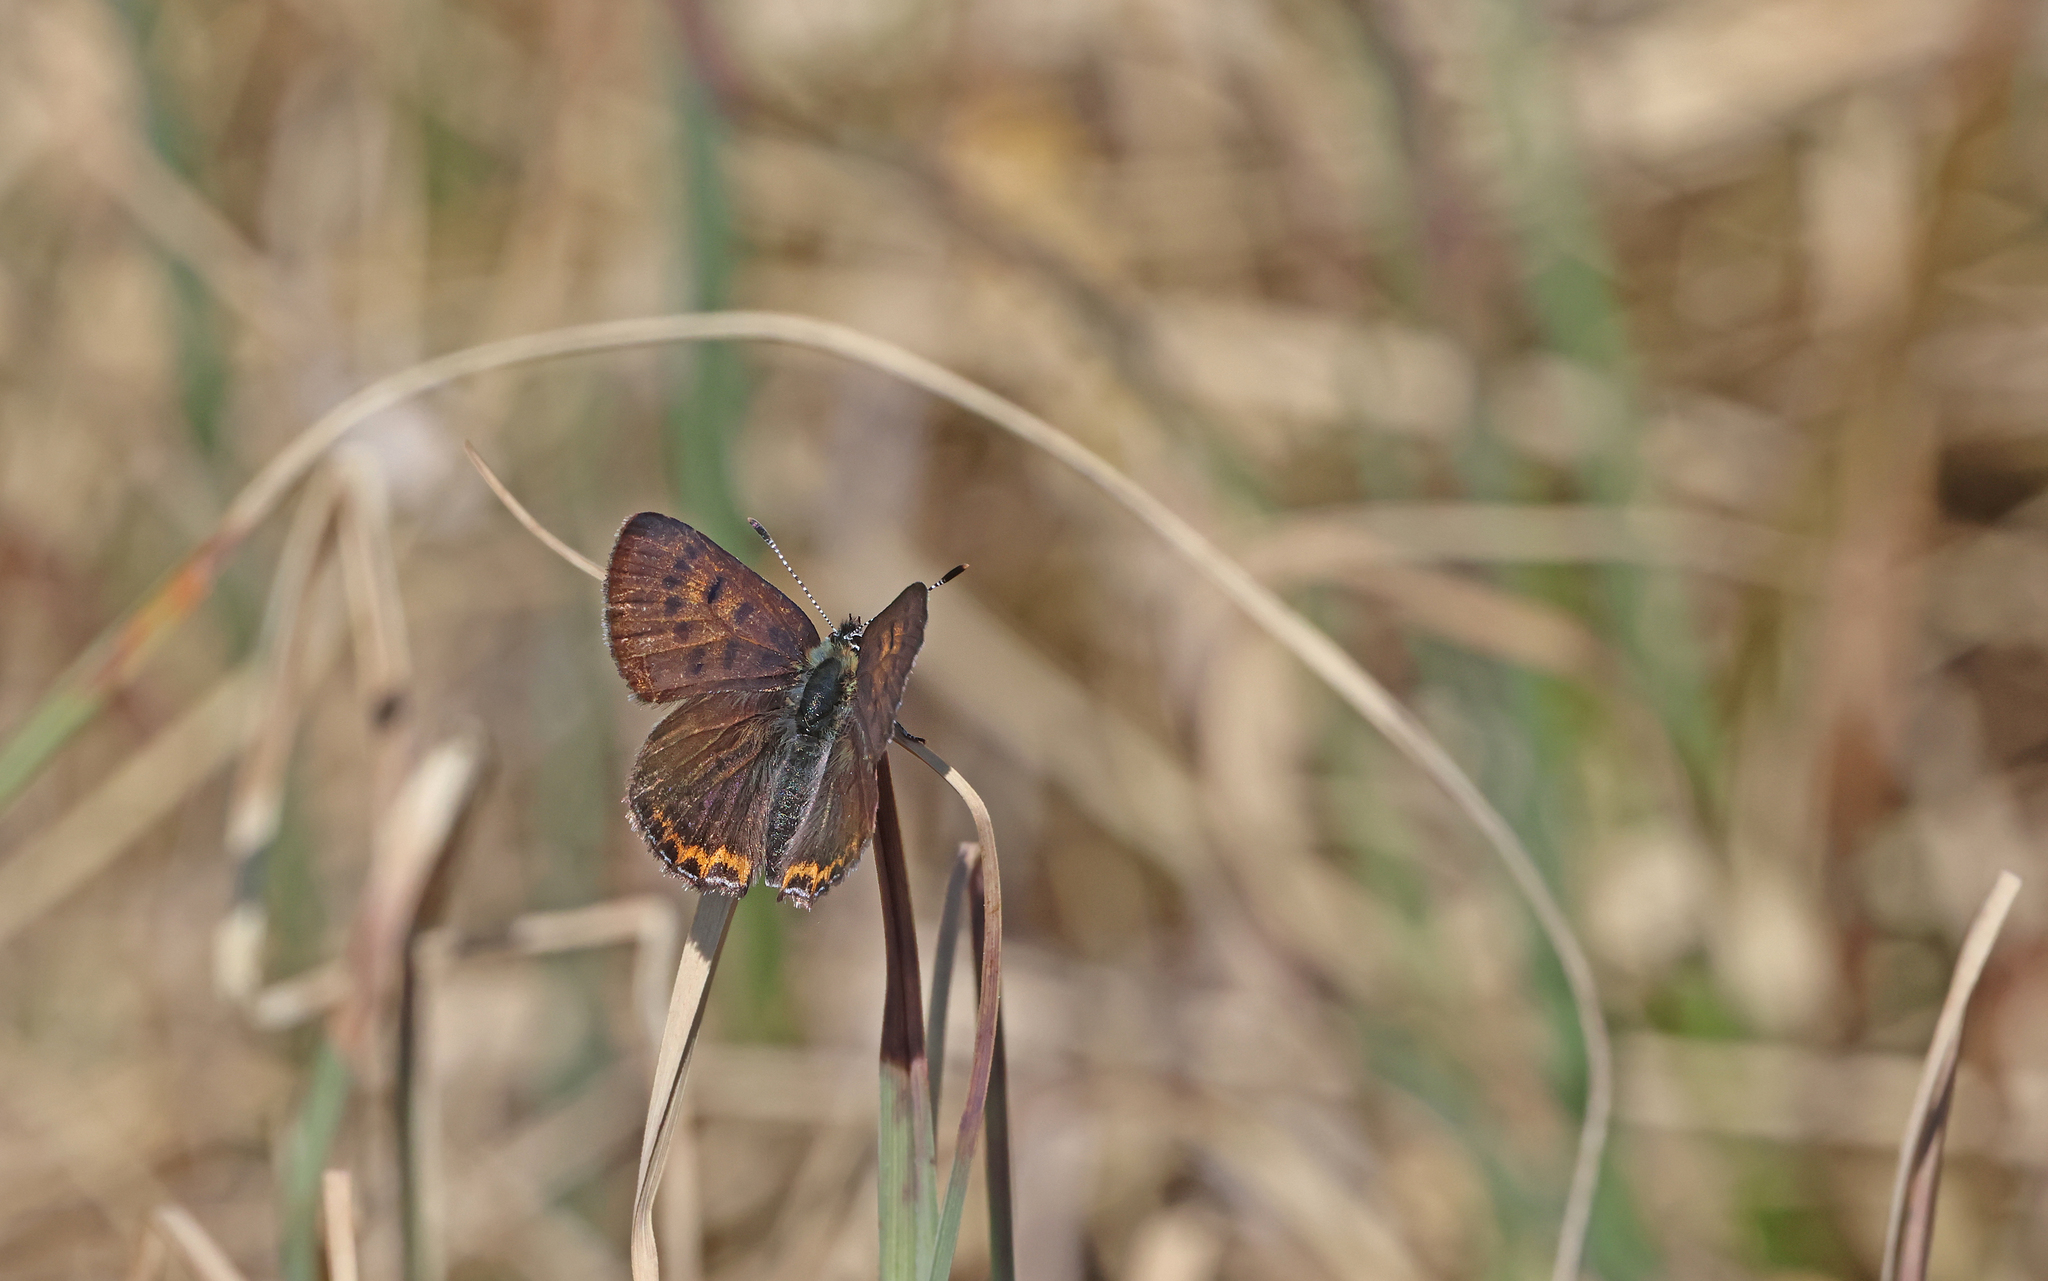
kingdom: Animalia
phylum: Arthropoda
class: Insecta
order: Lepidoptera
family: Lycaenidae
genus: Helleia
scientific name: Helleia helle
